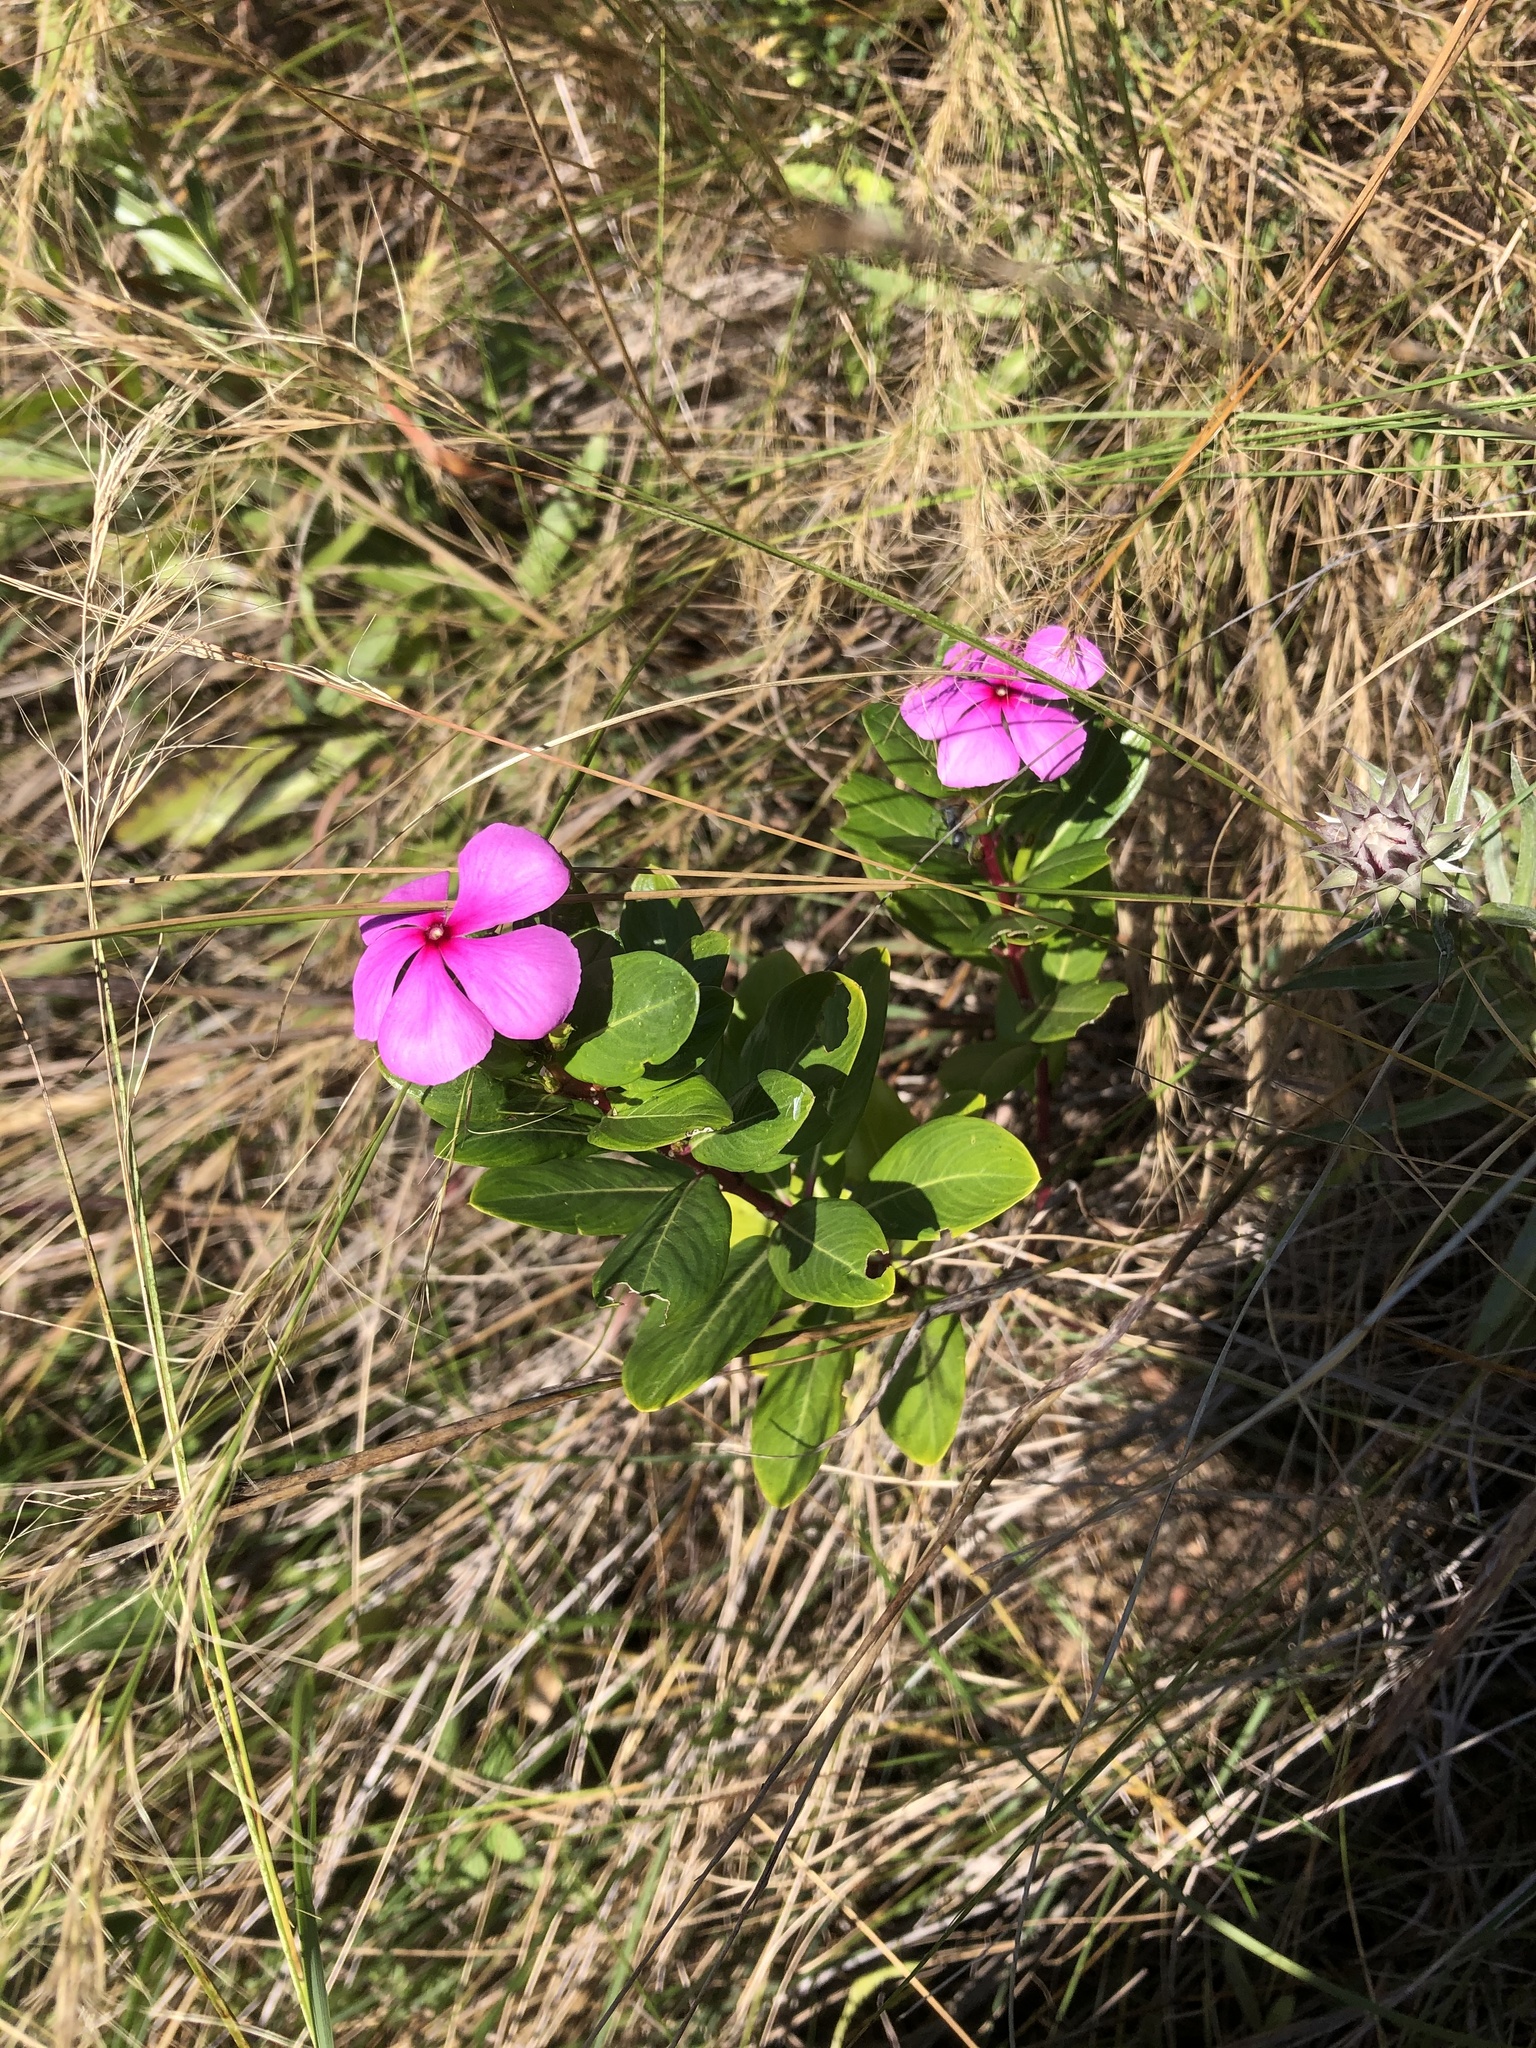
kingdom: Plantae
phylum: Tracheophyta
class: Magnoliopsida
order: Gentianales
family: Apocynaceae
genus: Catharanthus
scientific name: Catharanthus roseus
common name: Madagascar periwinkle
